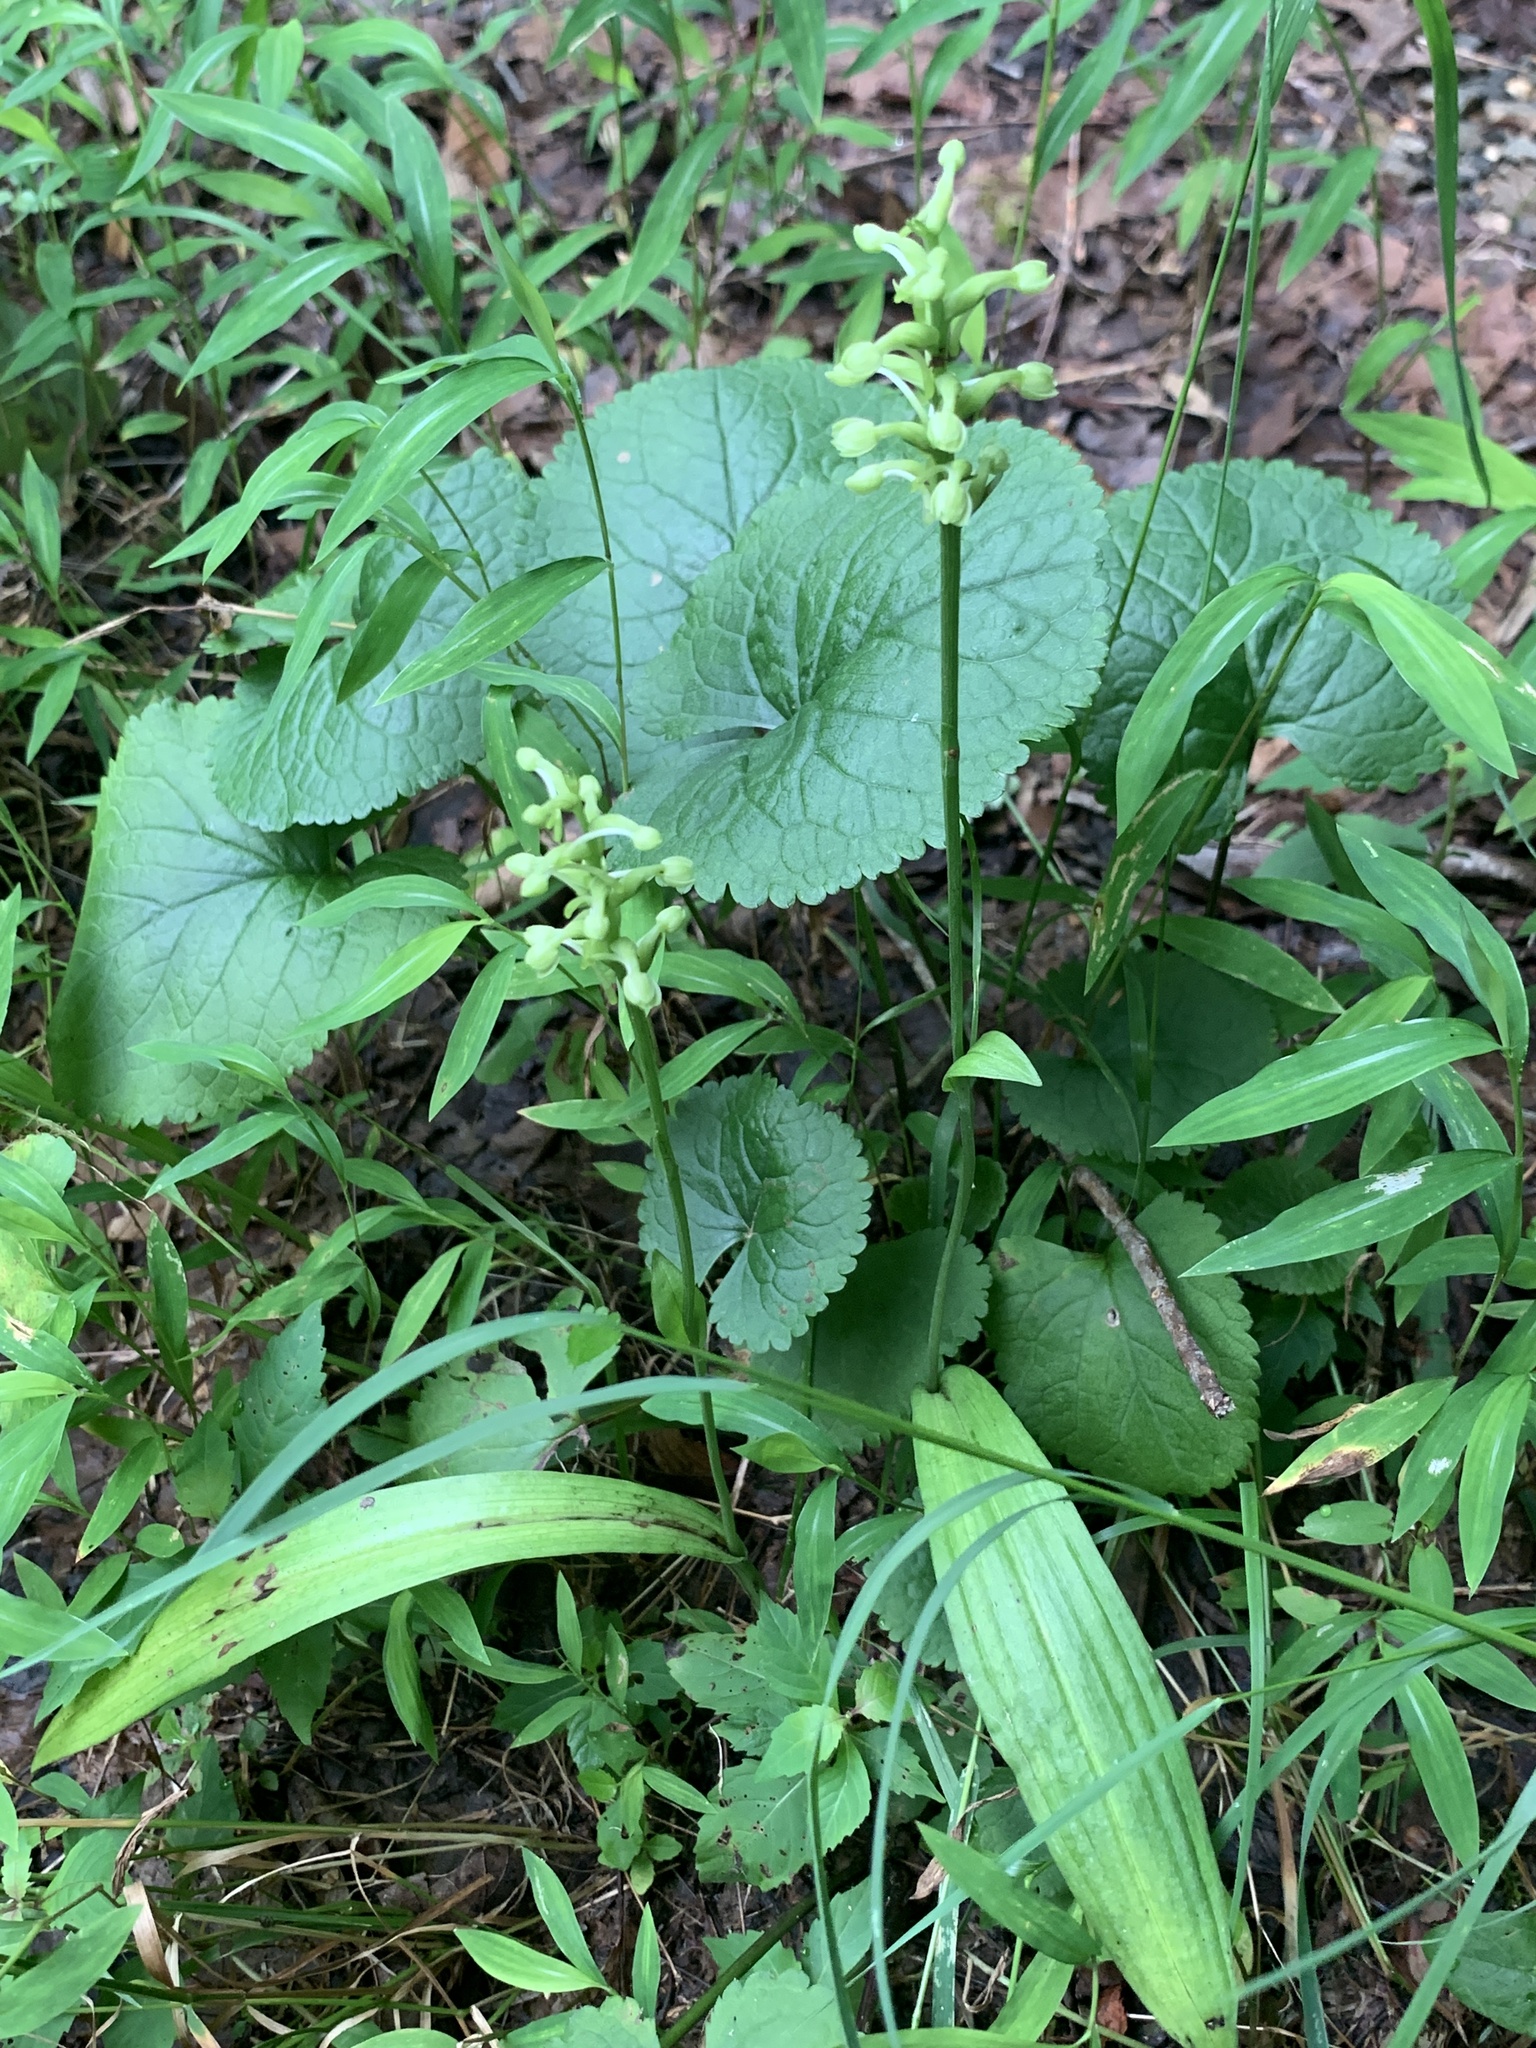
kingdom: Plantae
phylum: Tracheophyta
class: Liliopsida
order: Asparagales
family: Orchidaceae
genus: Platanthera
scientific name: Platanthera clavellata
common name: Club-spur orchid
